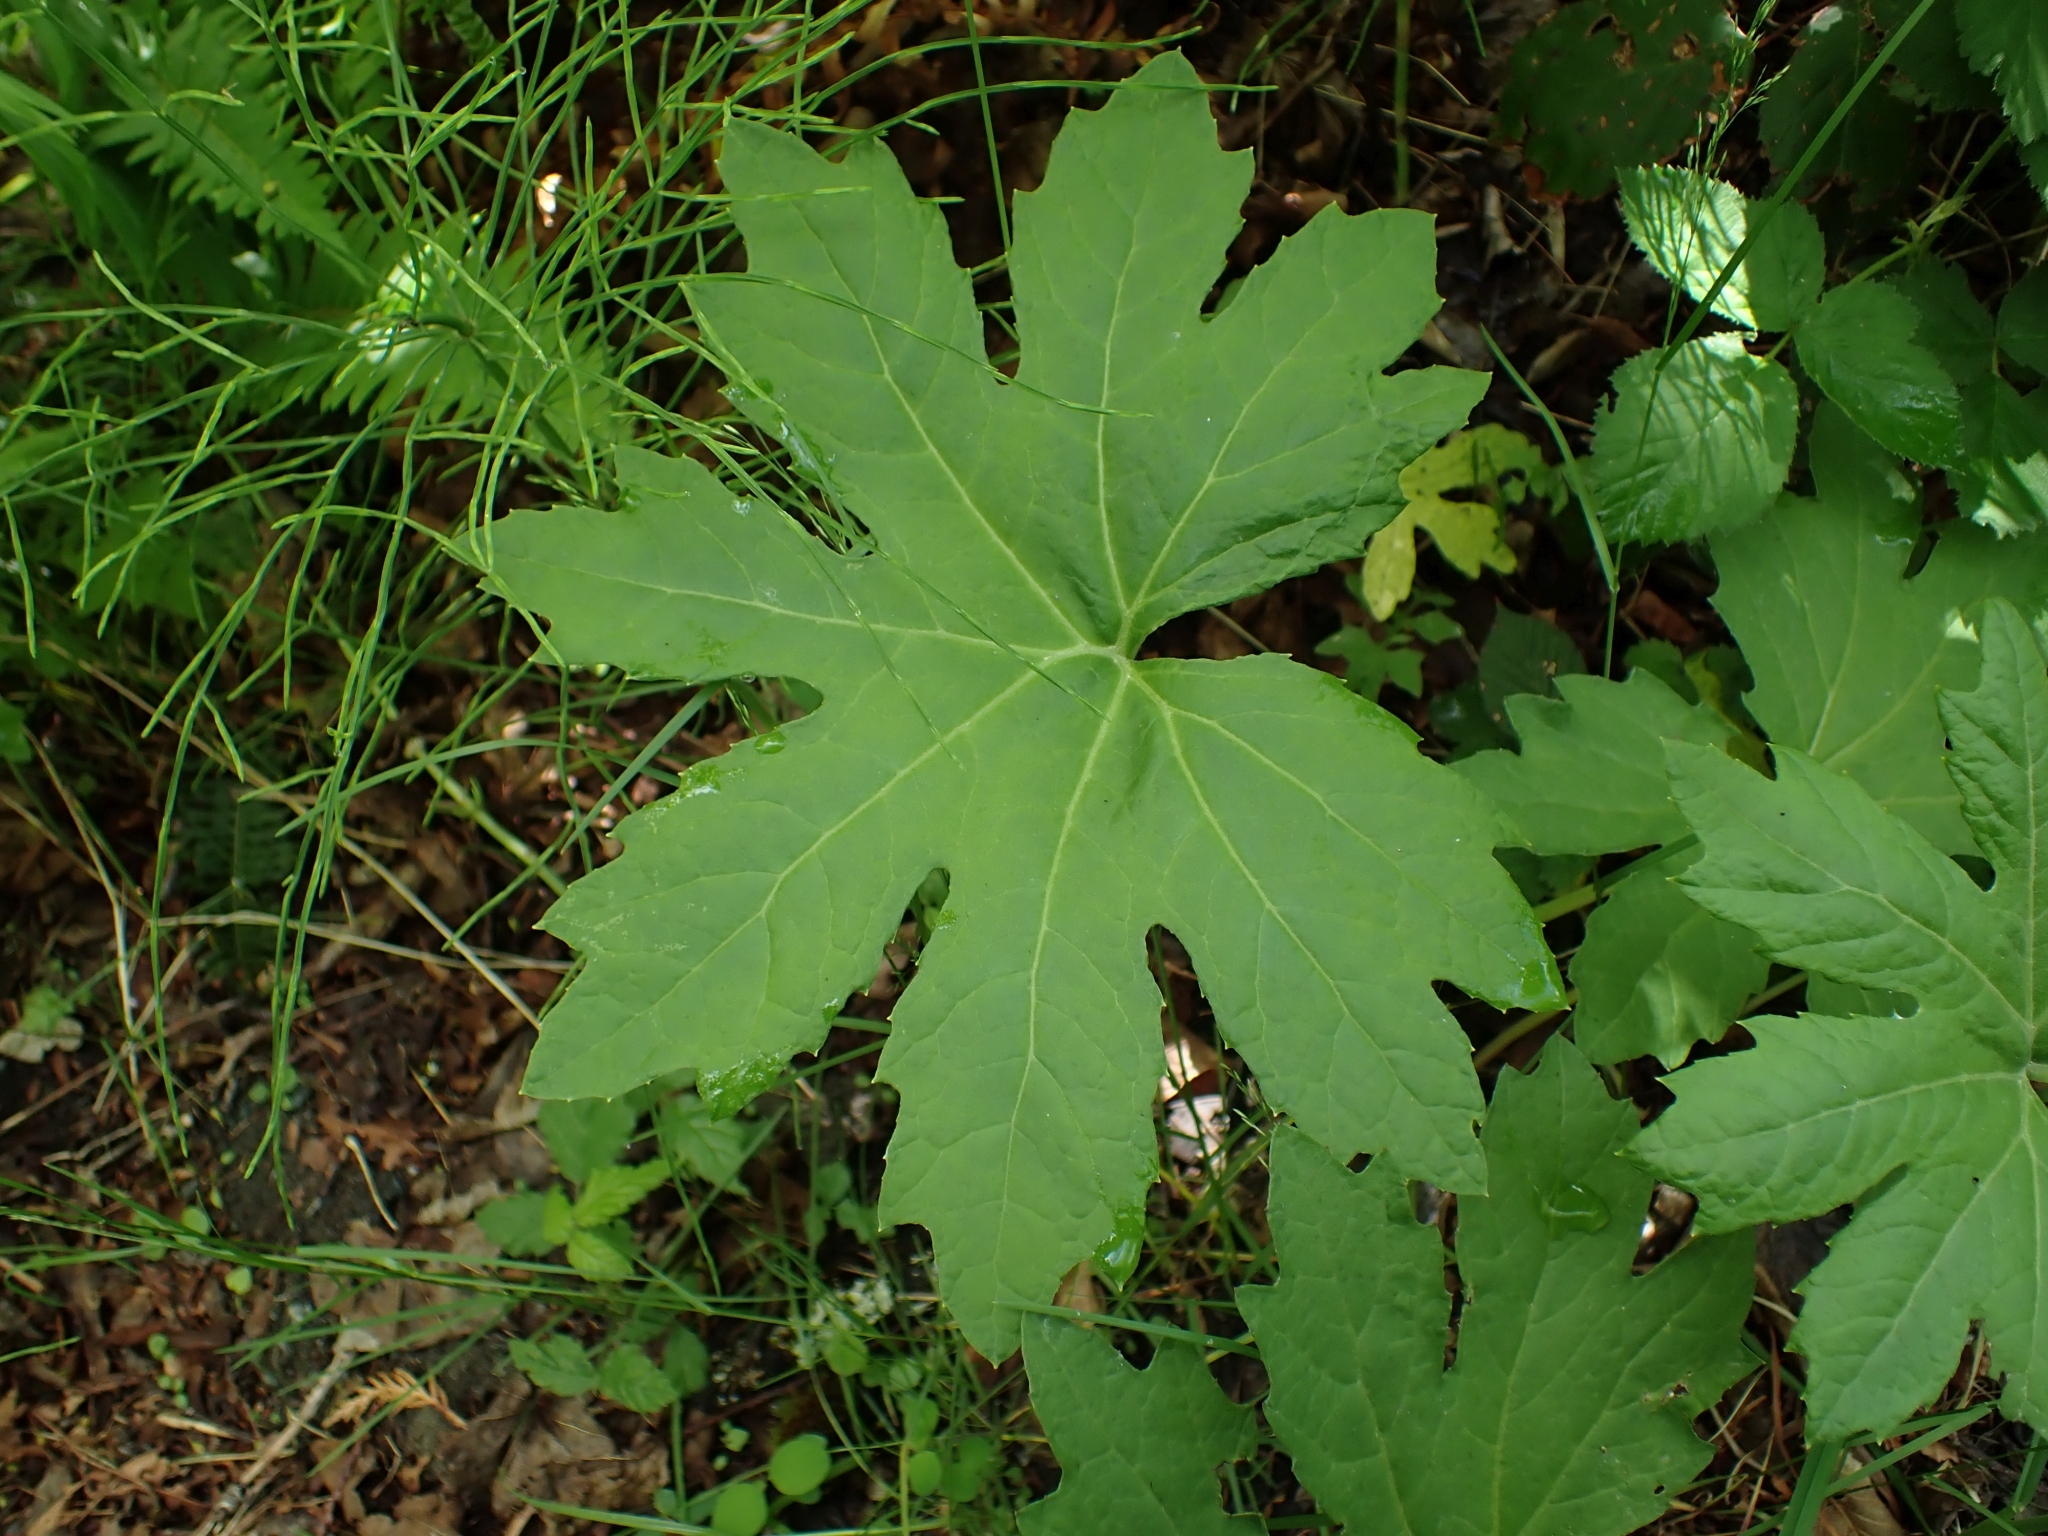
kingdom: Plantae
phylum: Tracheophyta
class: Magnoliopsida
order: Asterales
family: Asteraceae
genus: Petasites
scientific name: Petasites frigidus
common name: Arctic butterbur
